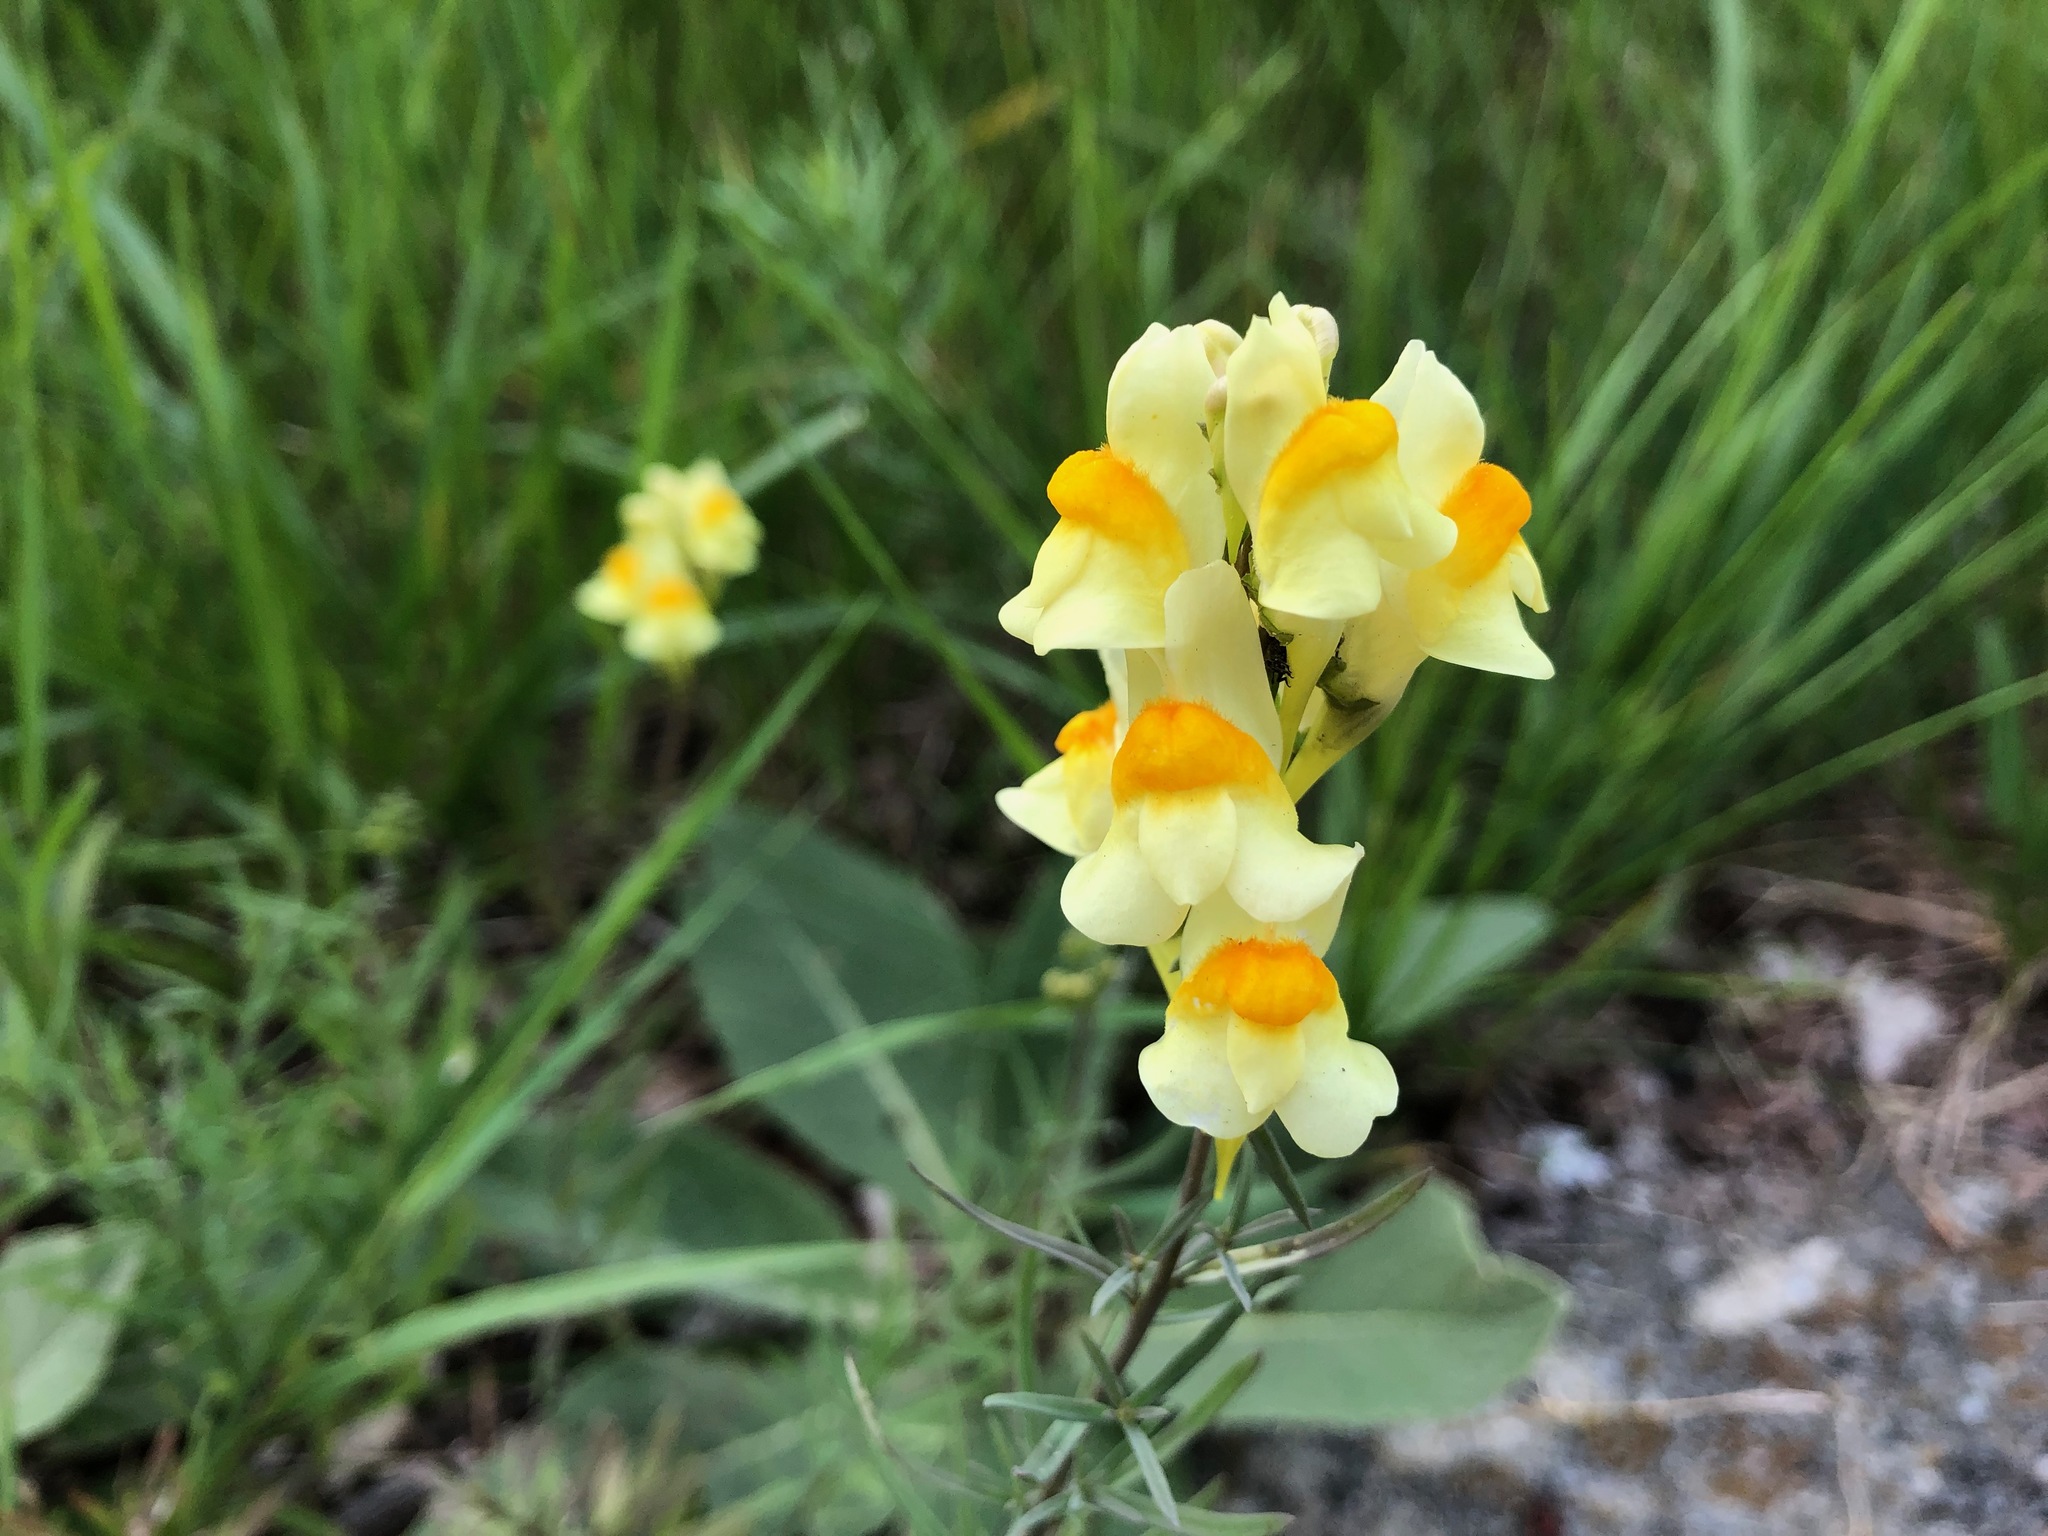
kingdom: Plantae
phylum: Tracheophyta
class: Magnoliopsida
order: Lamiales
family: Plantaginaceae
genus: Linaria
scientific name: Linaria vulgaris
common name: Butter and eggs
